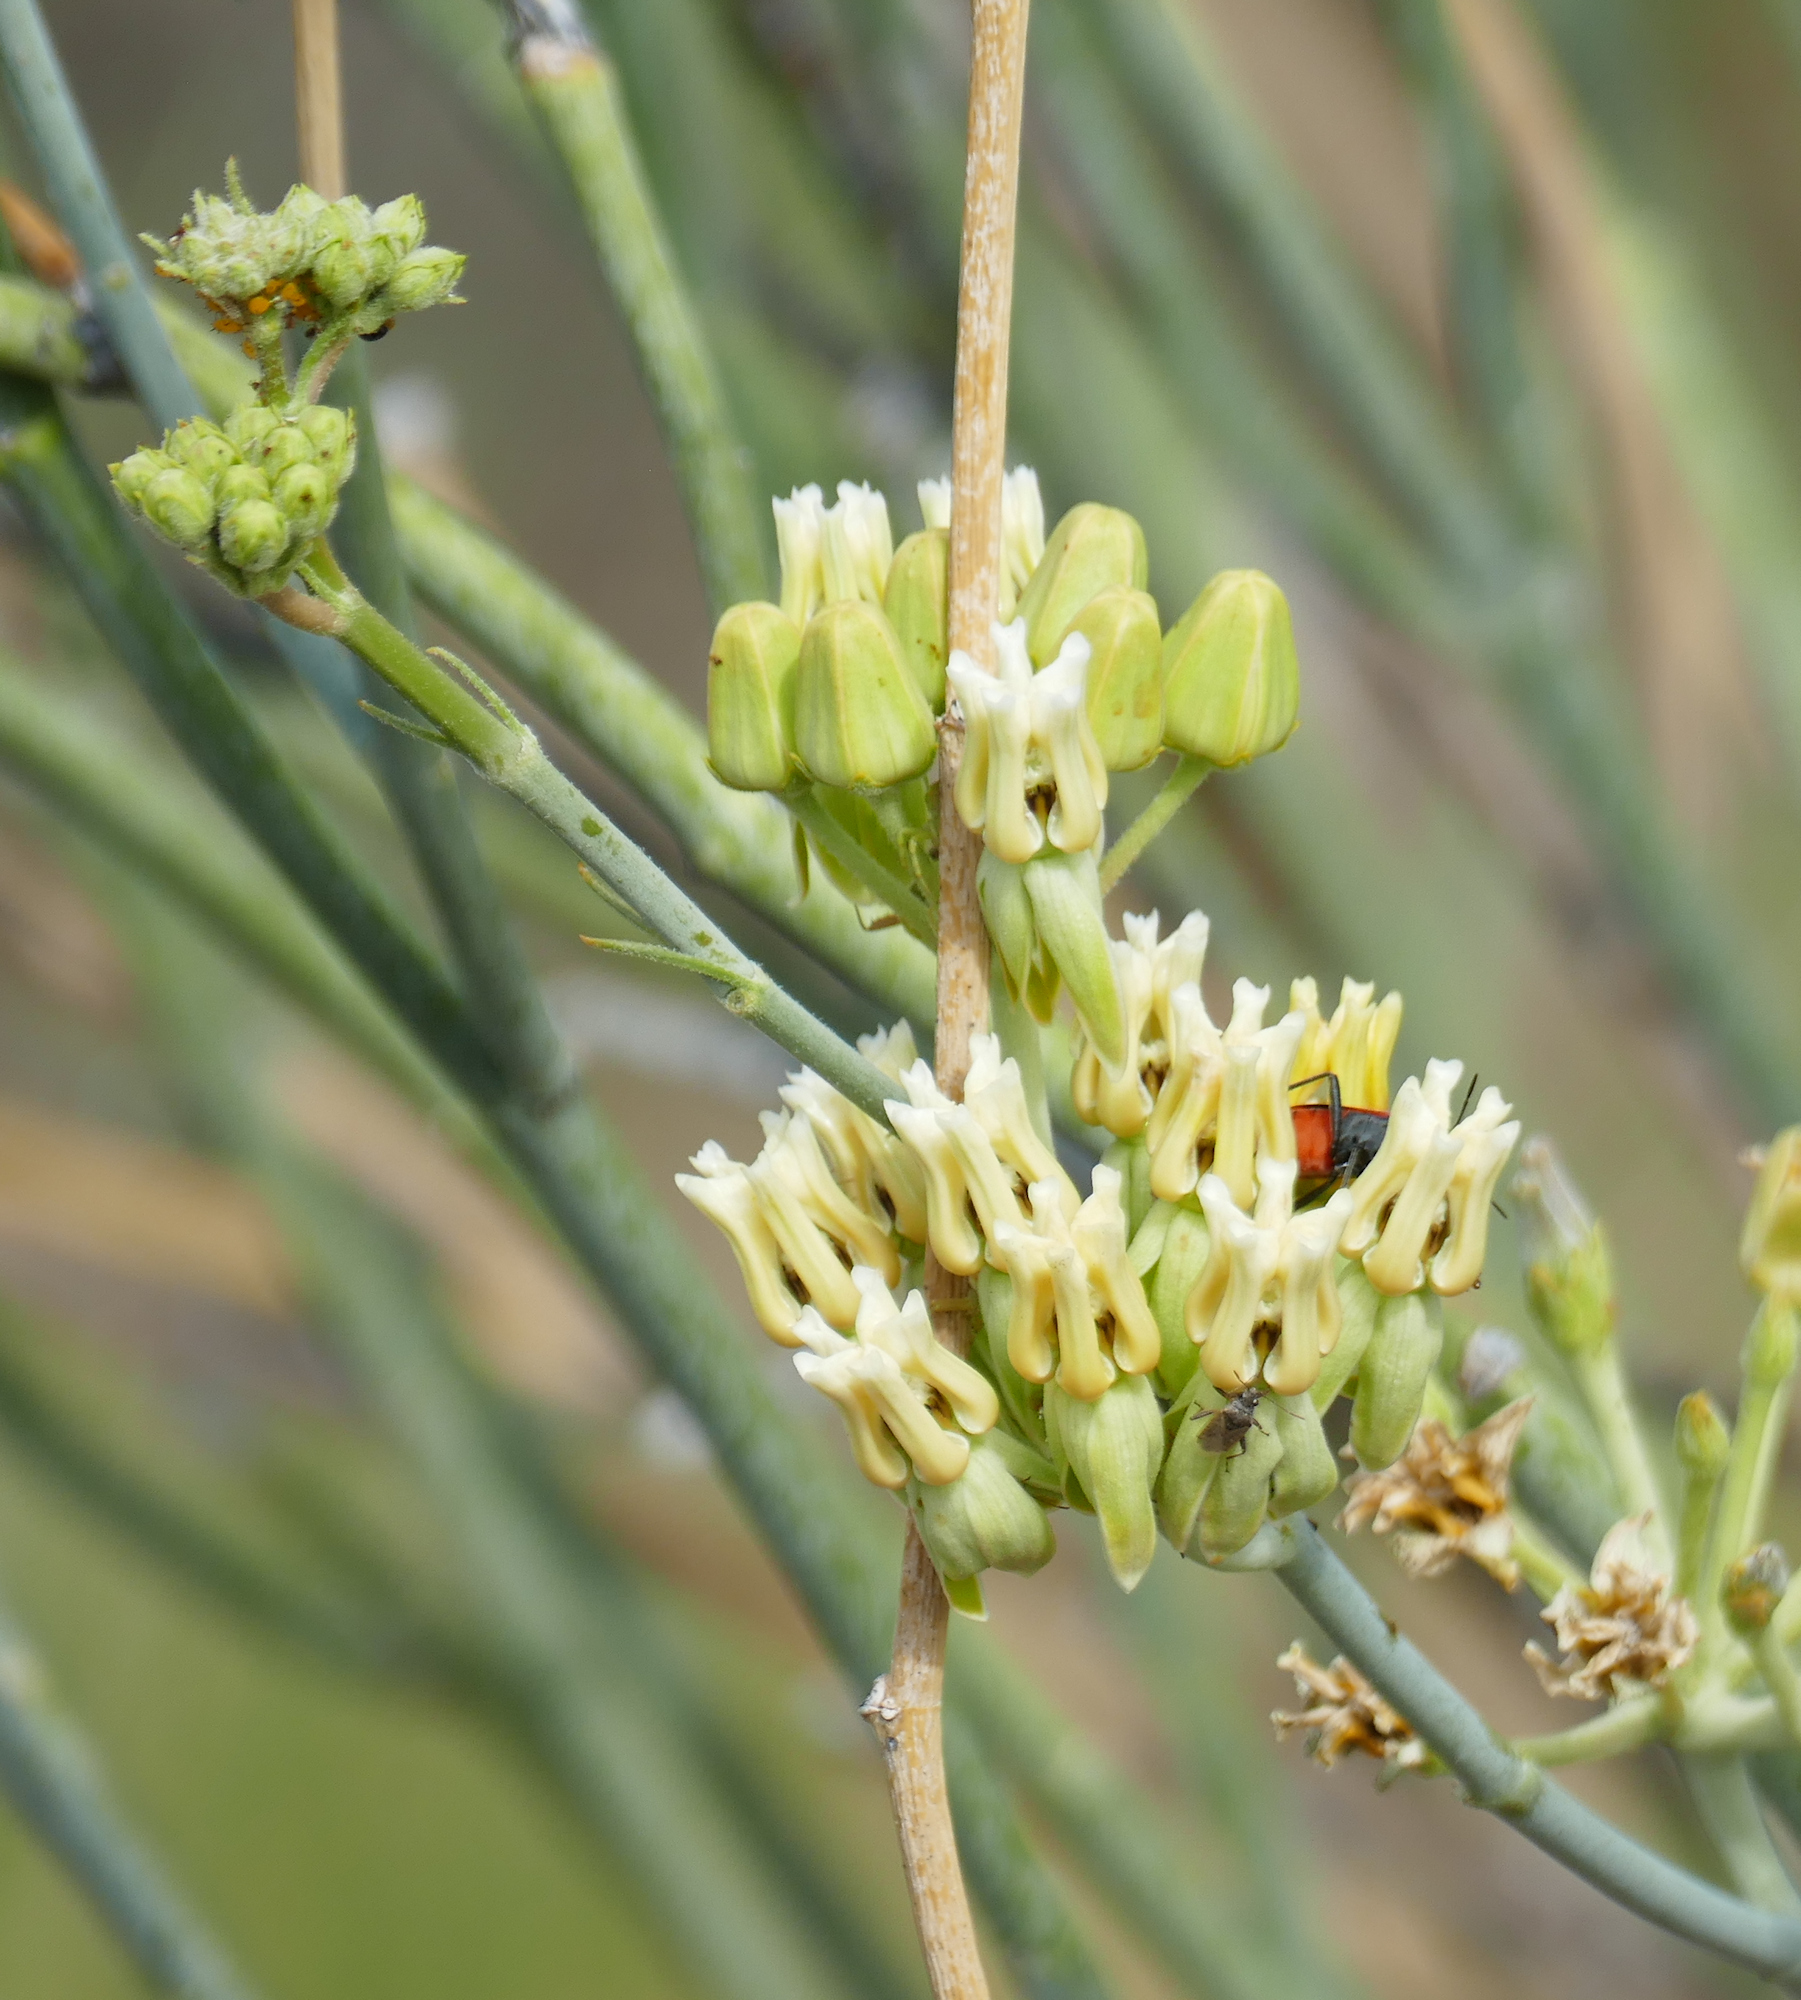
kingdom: Plantae
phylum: Tracheophyta
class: Magnoliopsida
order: Gentianales
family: Apocynaceae
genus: Asclepias
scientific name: Asclepias subulata
